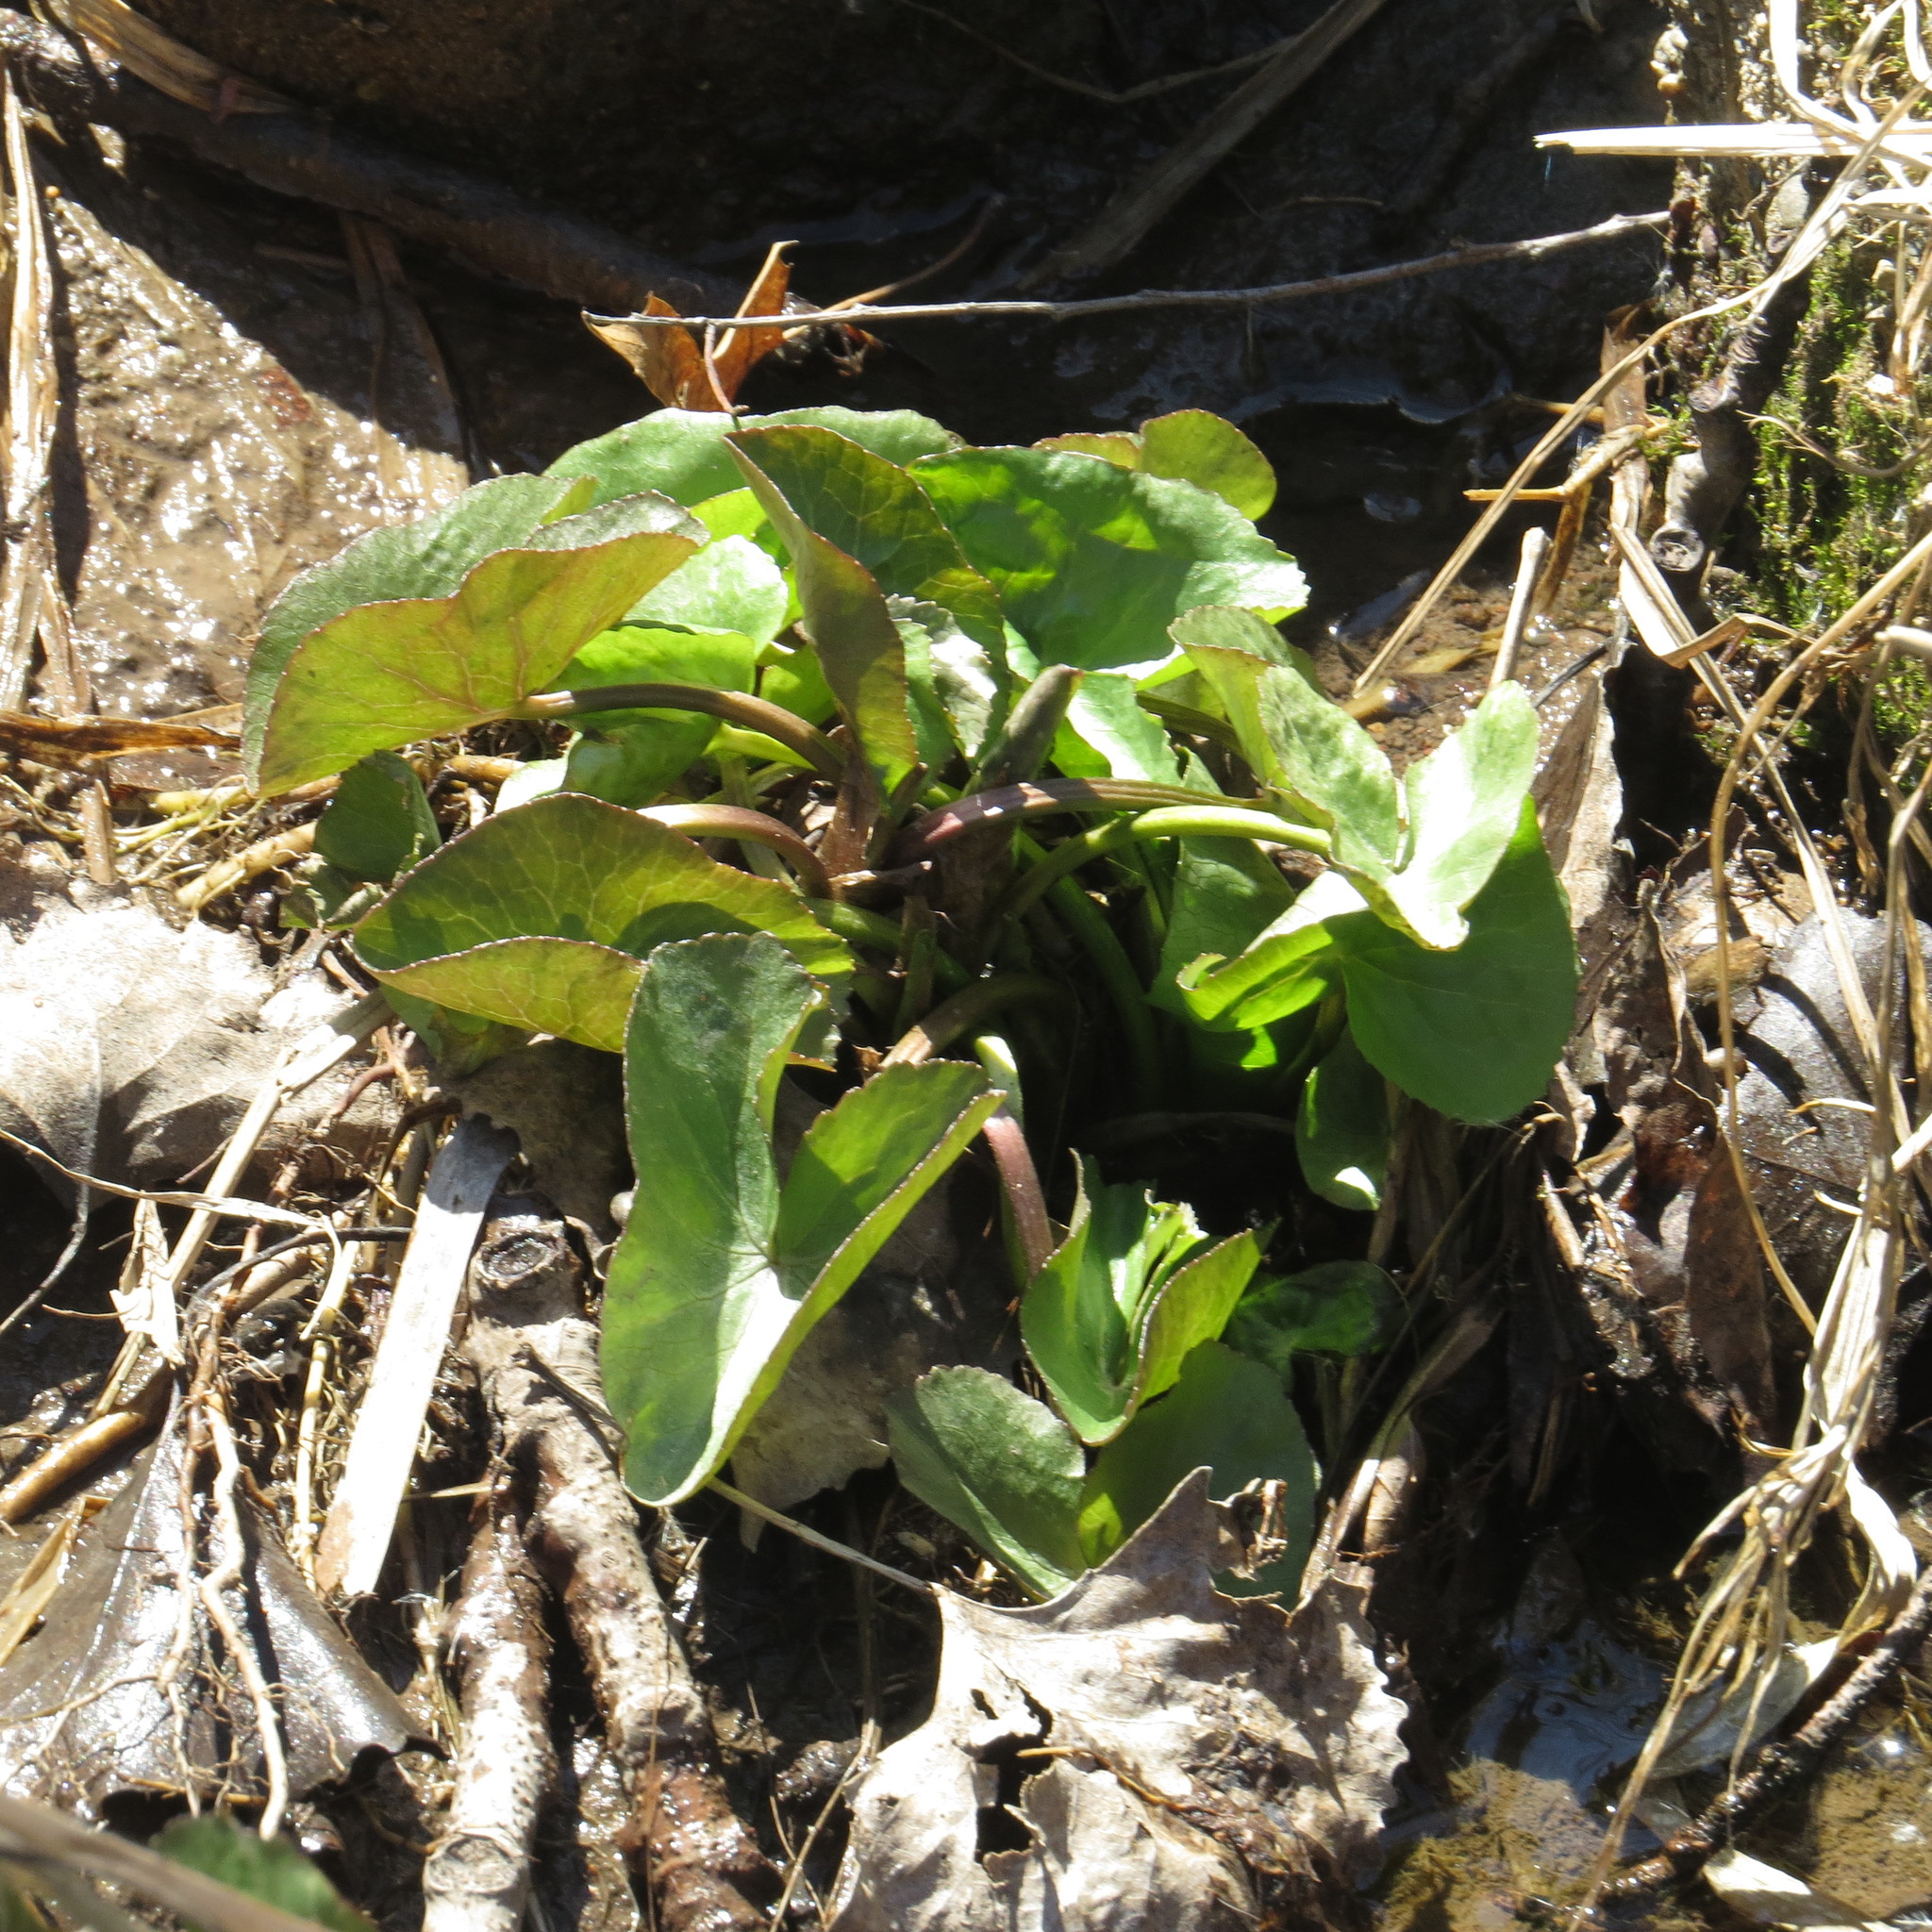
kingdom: Plantae
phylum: Tracheophyta
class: Magnoliopsida
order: Ranunculales
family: Ranunculaceae
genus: Caltha
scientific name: Caltha palustris
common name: Marsh marigold
